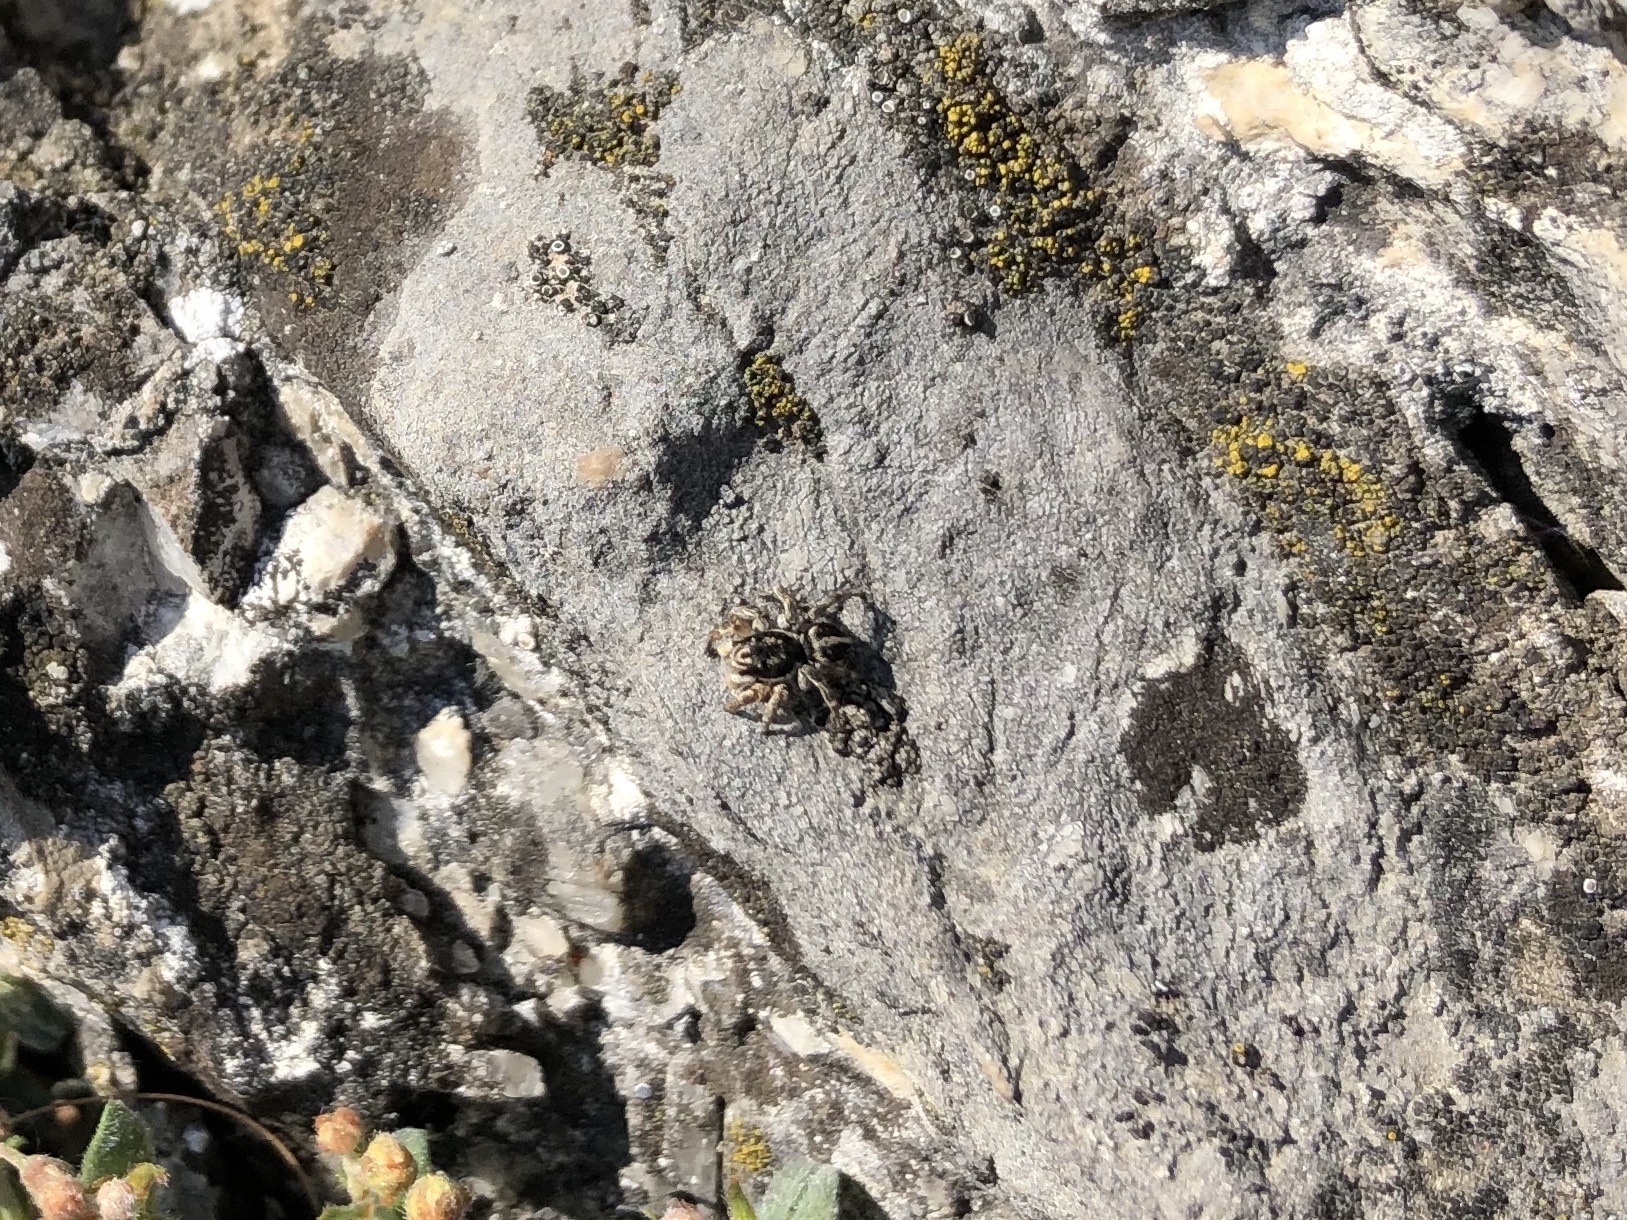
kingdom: Animalia
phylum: Arthropoda
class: Arachnida
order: Araneae
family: Salticidae
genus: Aelurillus
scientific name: Aelurillus v-insignitus
